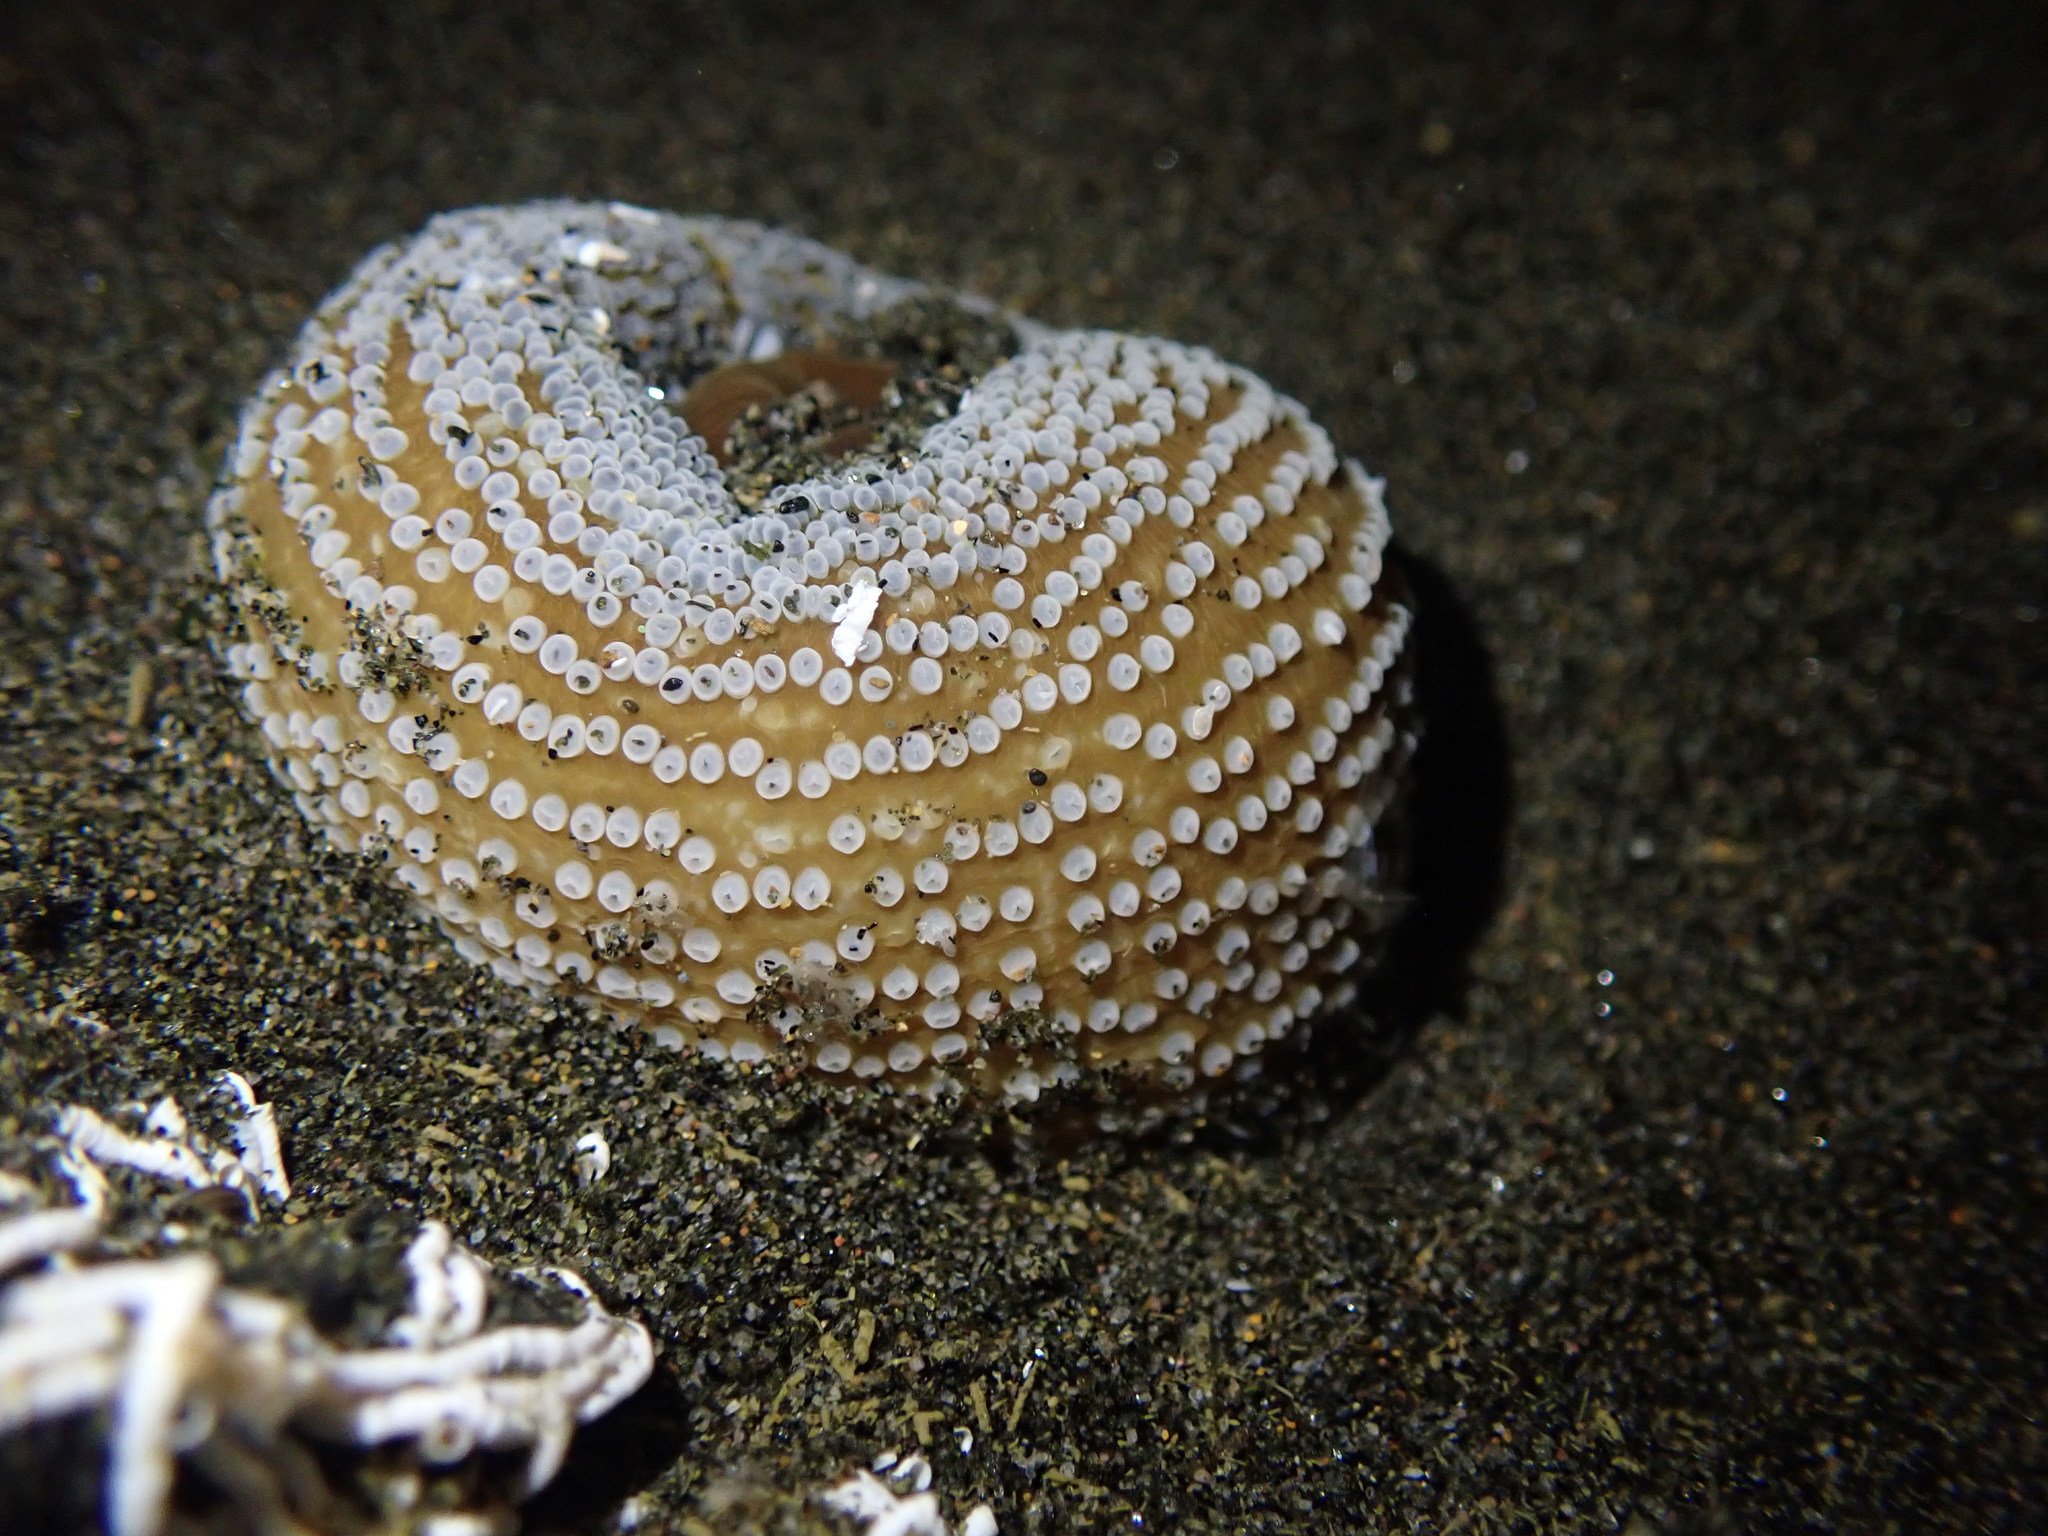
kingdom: Animalia
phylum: Cnidaria
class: Anthozoa
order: Actiniaria
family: Actiniidae
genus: Oulactis
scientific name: Oulactis magna
